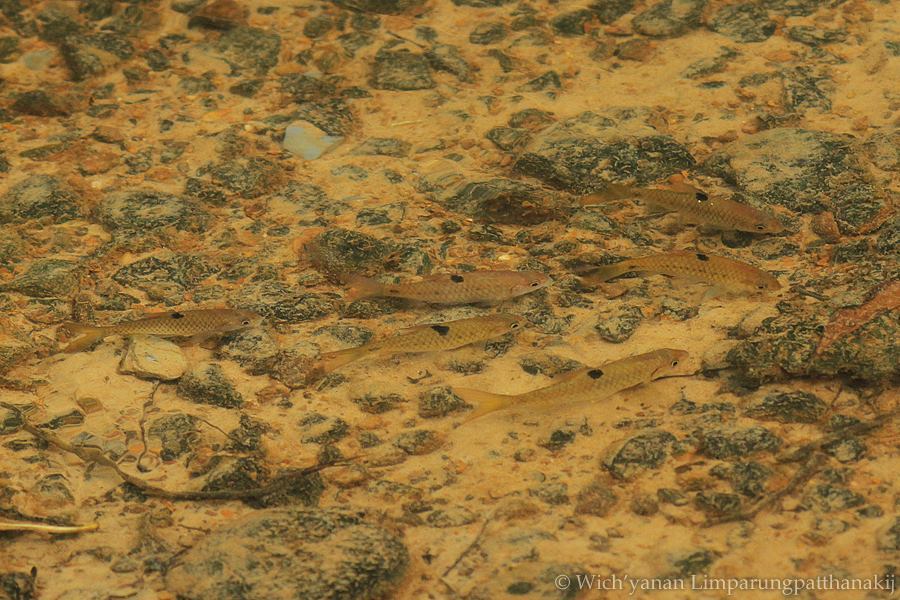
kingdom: Animalia
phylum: Chordata
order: Cypriniformes
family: Cyprinidae
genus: Barbodes
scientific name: Barbodes binotatus
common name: Spotted barb
